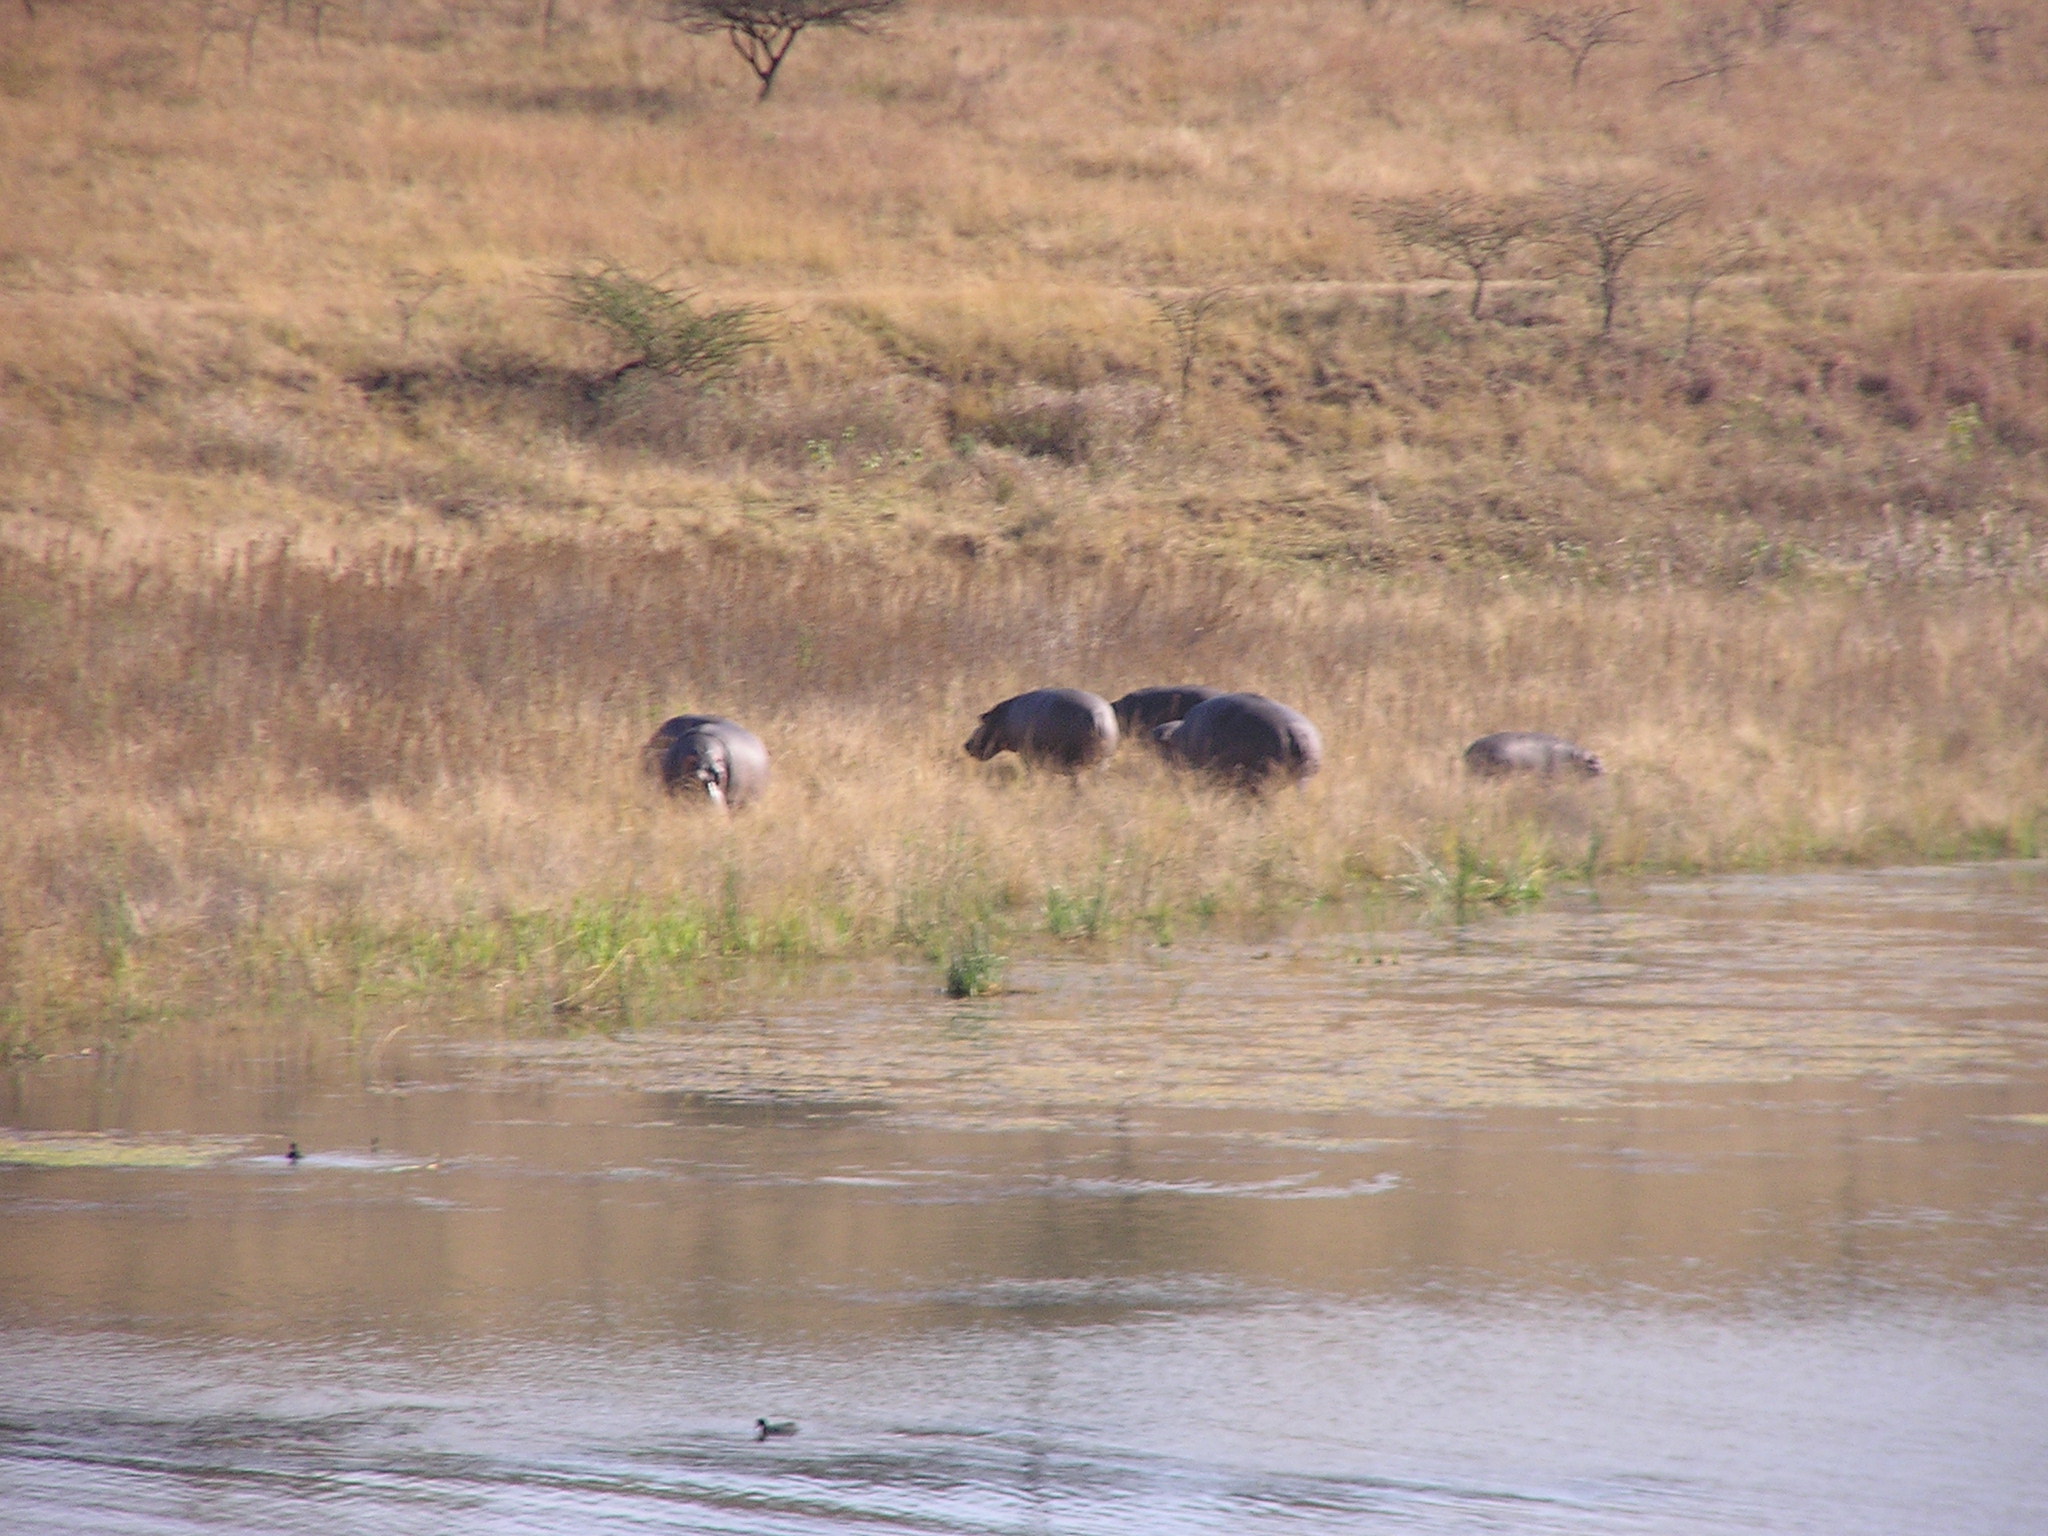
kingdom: Animalia
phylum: Chordata
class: Mammalia
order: Artiodactyla
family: Hippopotamidae
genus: Hippopotamus
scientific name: Hippopotamus amphibius
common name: Common hippopotamus
